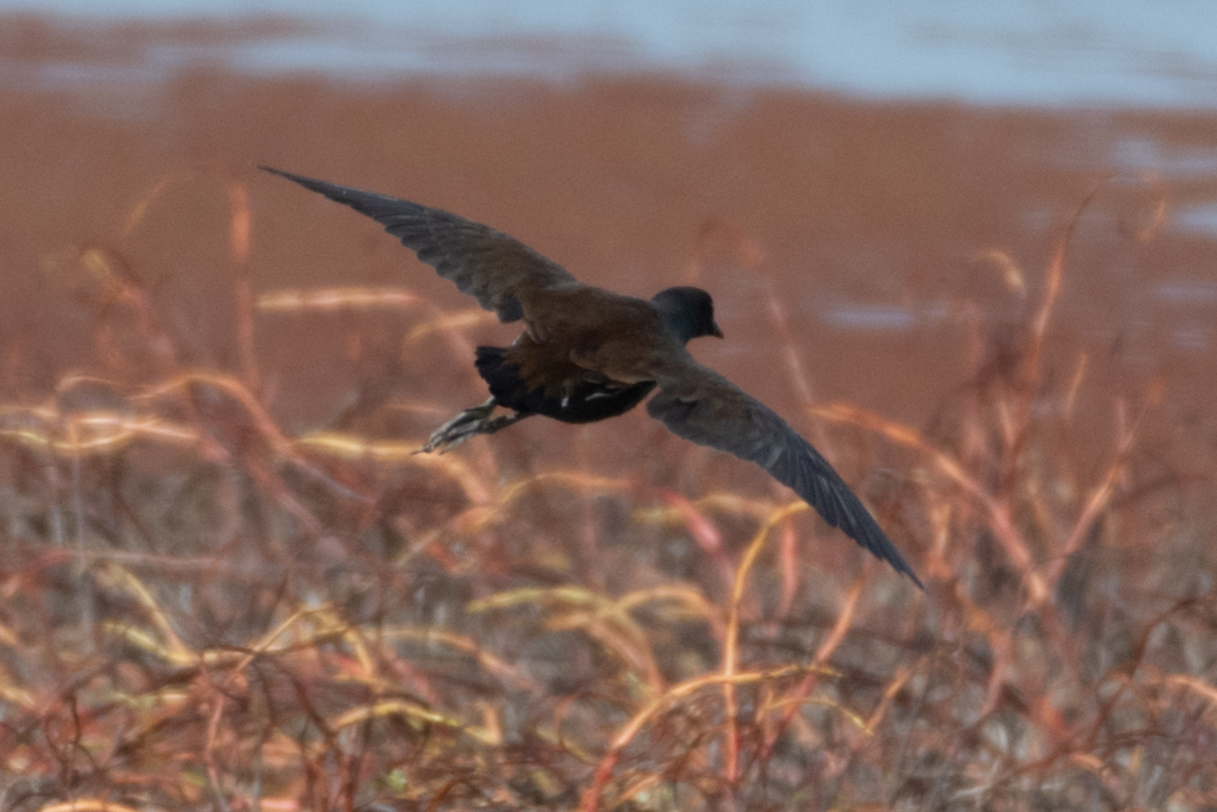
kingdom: Animalia
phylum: Chordata
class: Aves
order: Gruiformes
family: Rallidae
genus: Gallinula
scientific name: Gallinula chloropus
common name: Common moorhen
